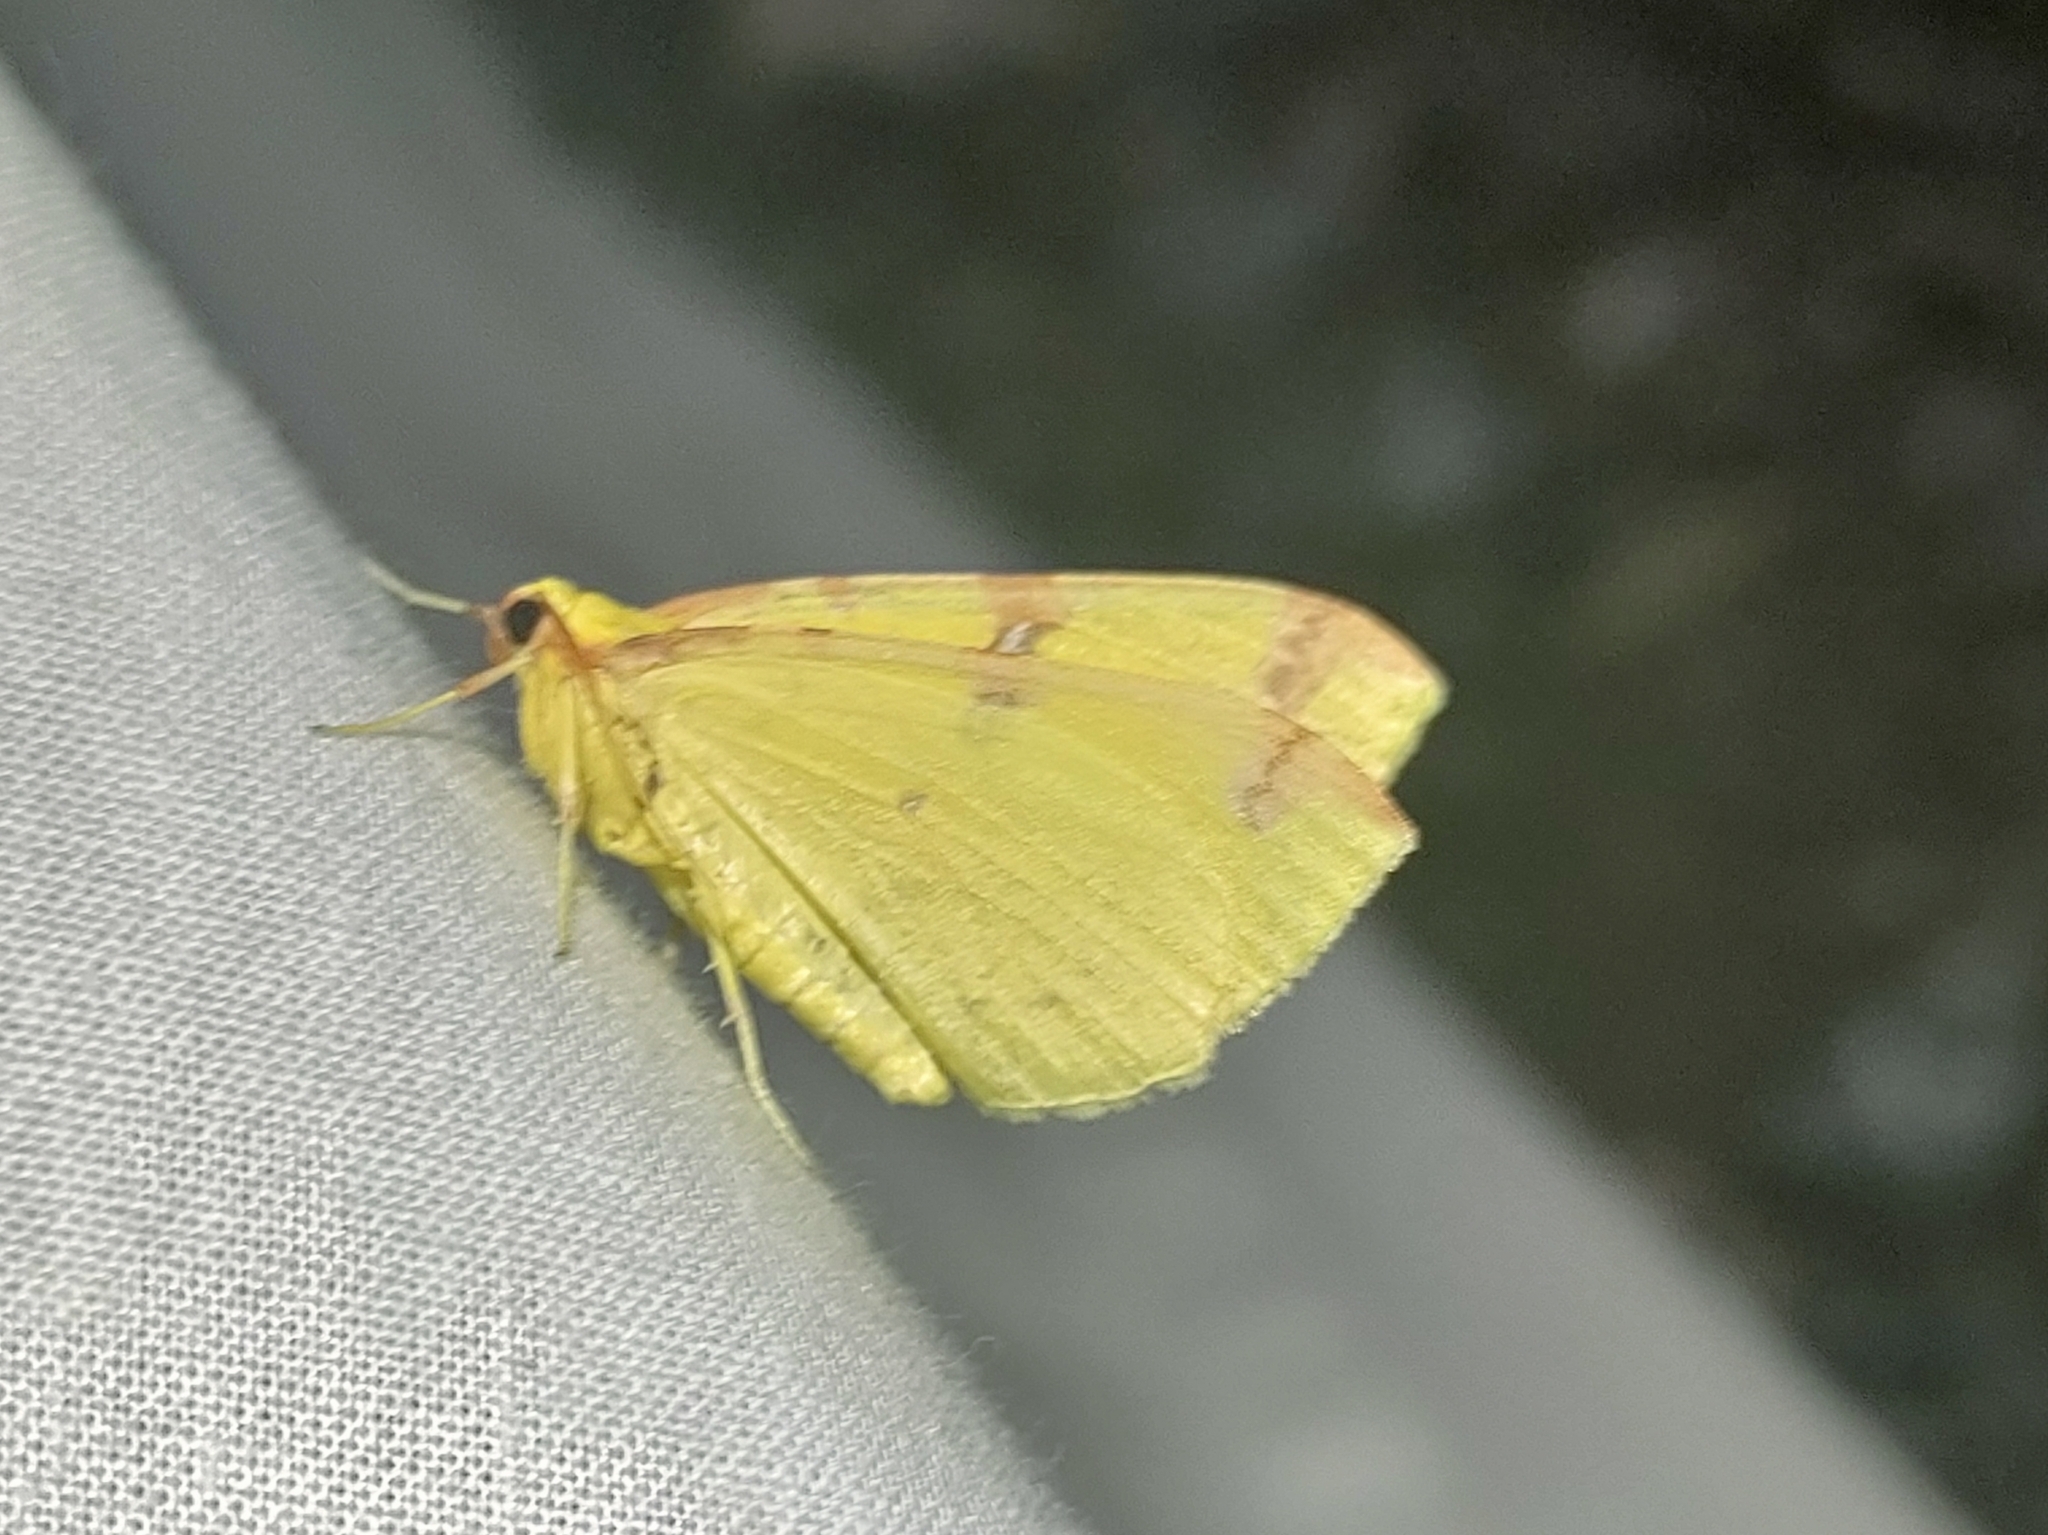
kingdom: Animalia
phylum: Arthropoda
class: Insecta
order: Lepidoptera
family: Geometridae
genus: Opisthograptis
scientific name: Opisthograptis luteolata
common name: Brimstone moth
